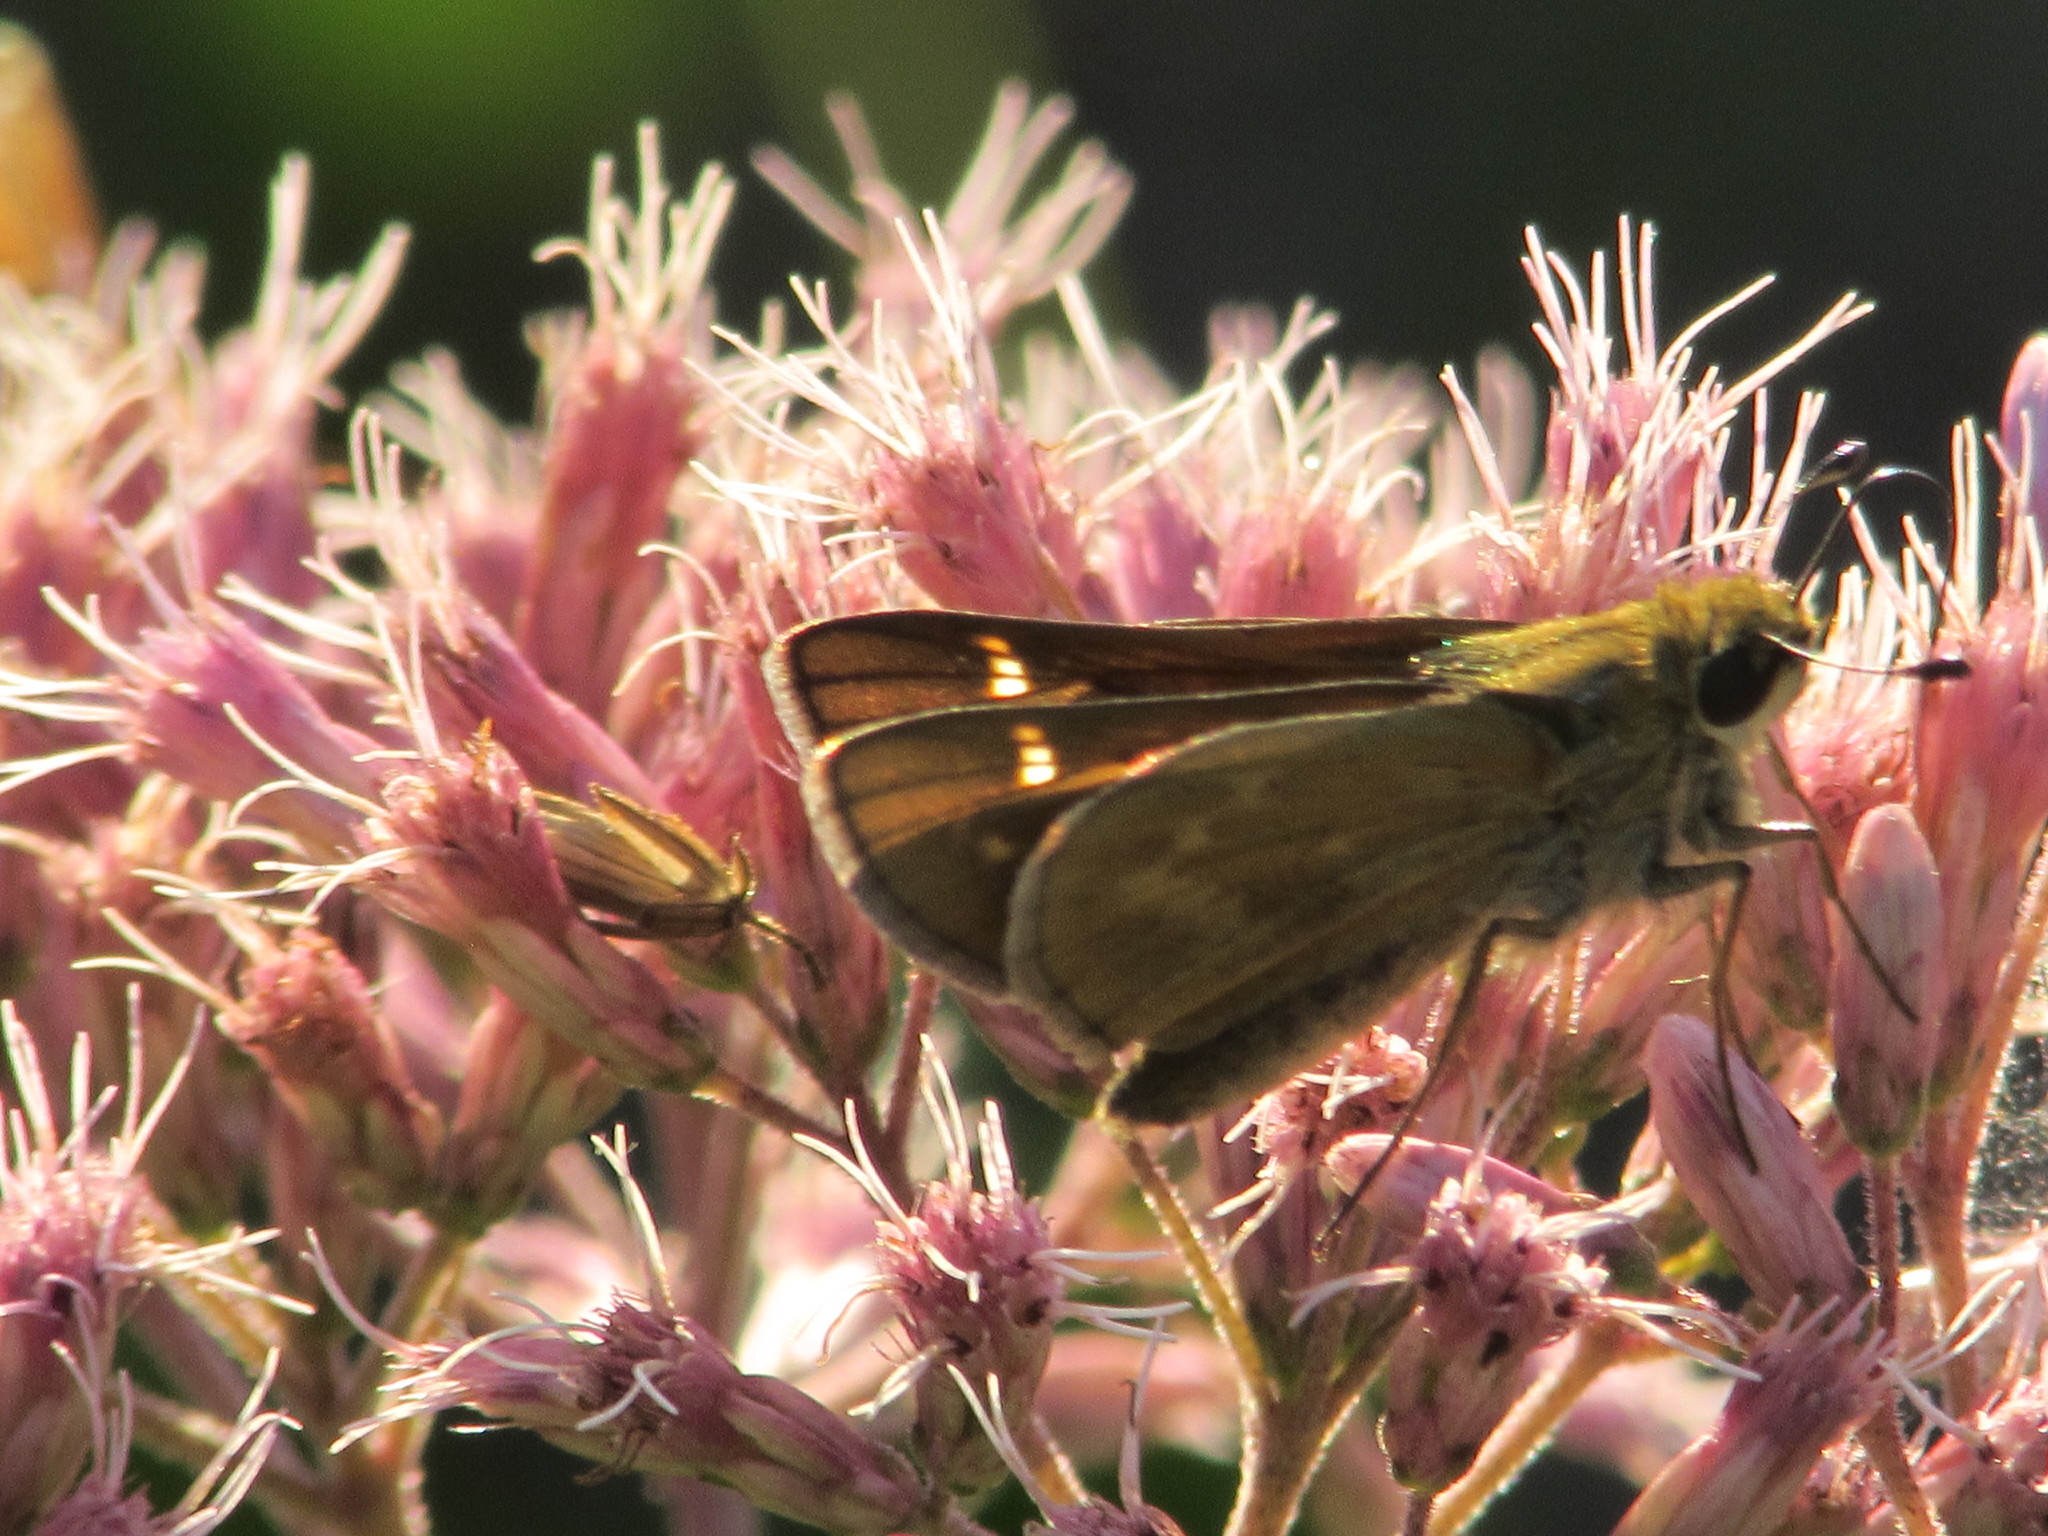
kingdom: Animalia
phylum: Arthropoda
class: Insecta
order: Lepidoptera
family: Hesperiidae
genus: Atalopedes
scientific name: Atalopedes
